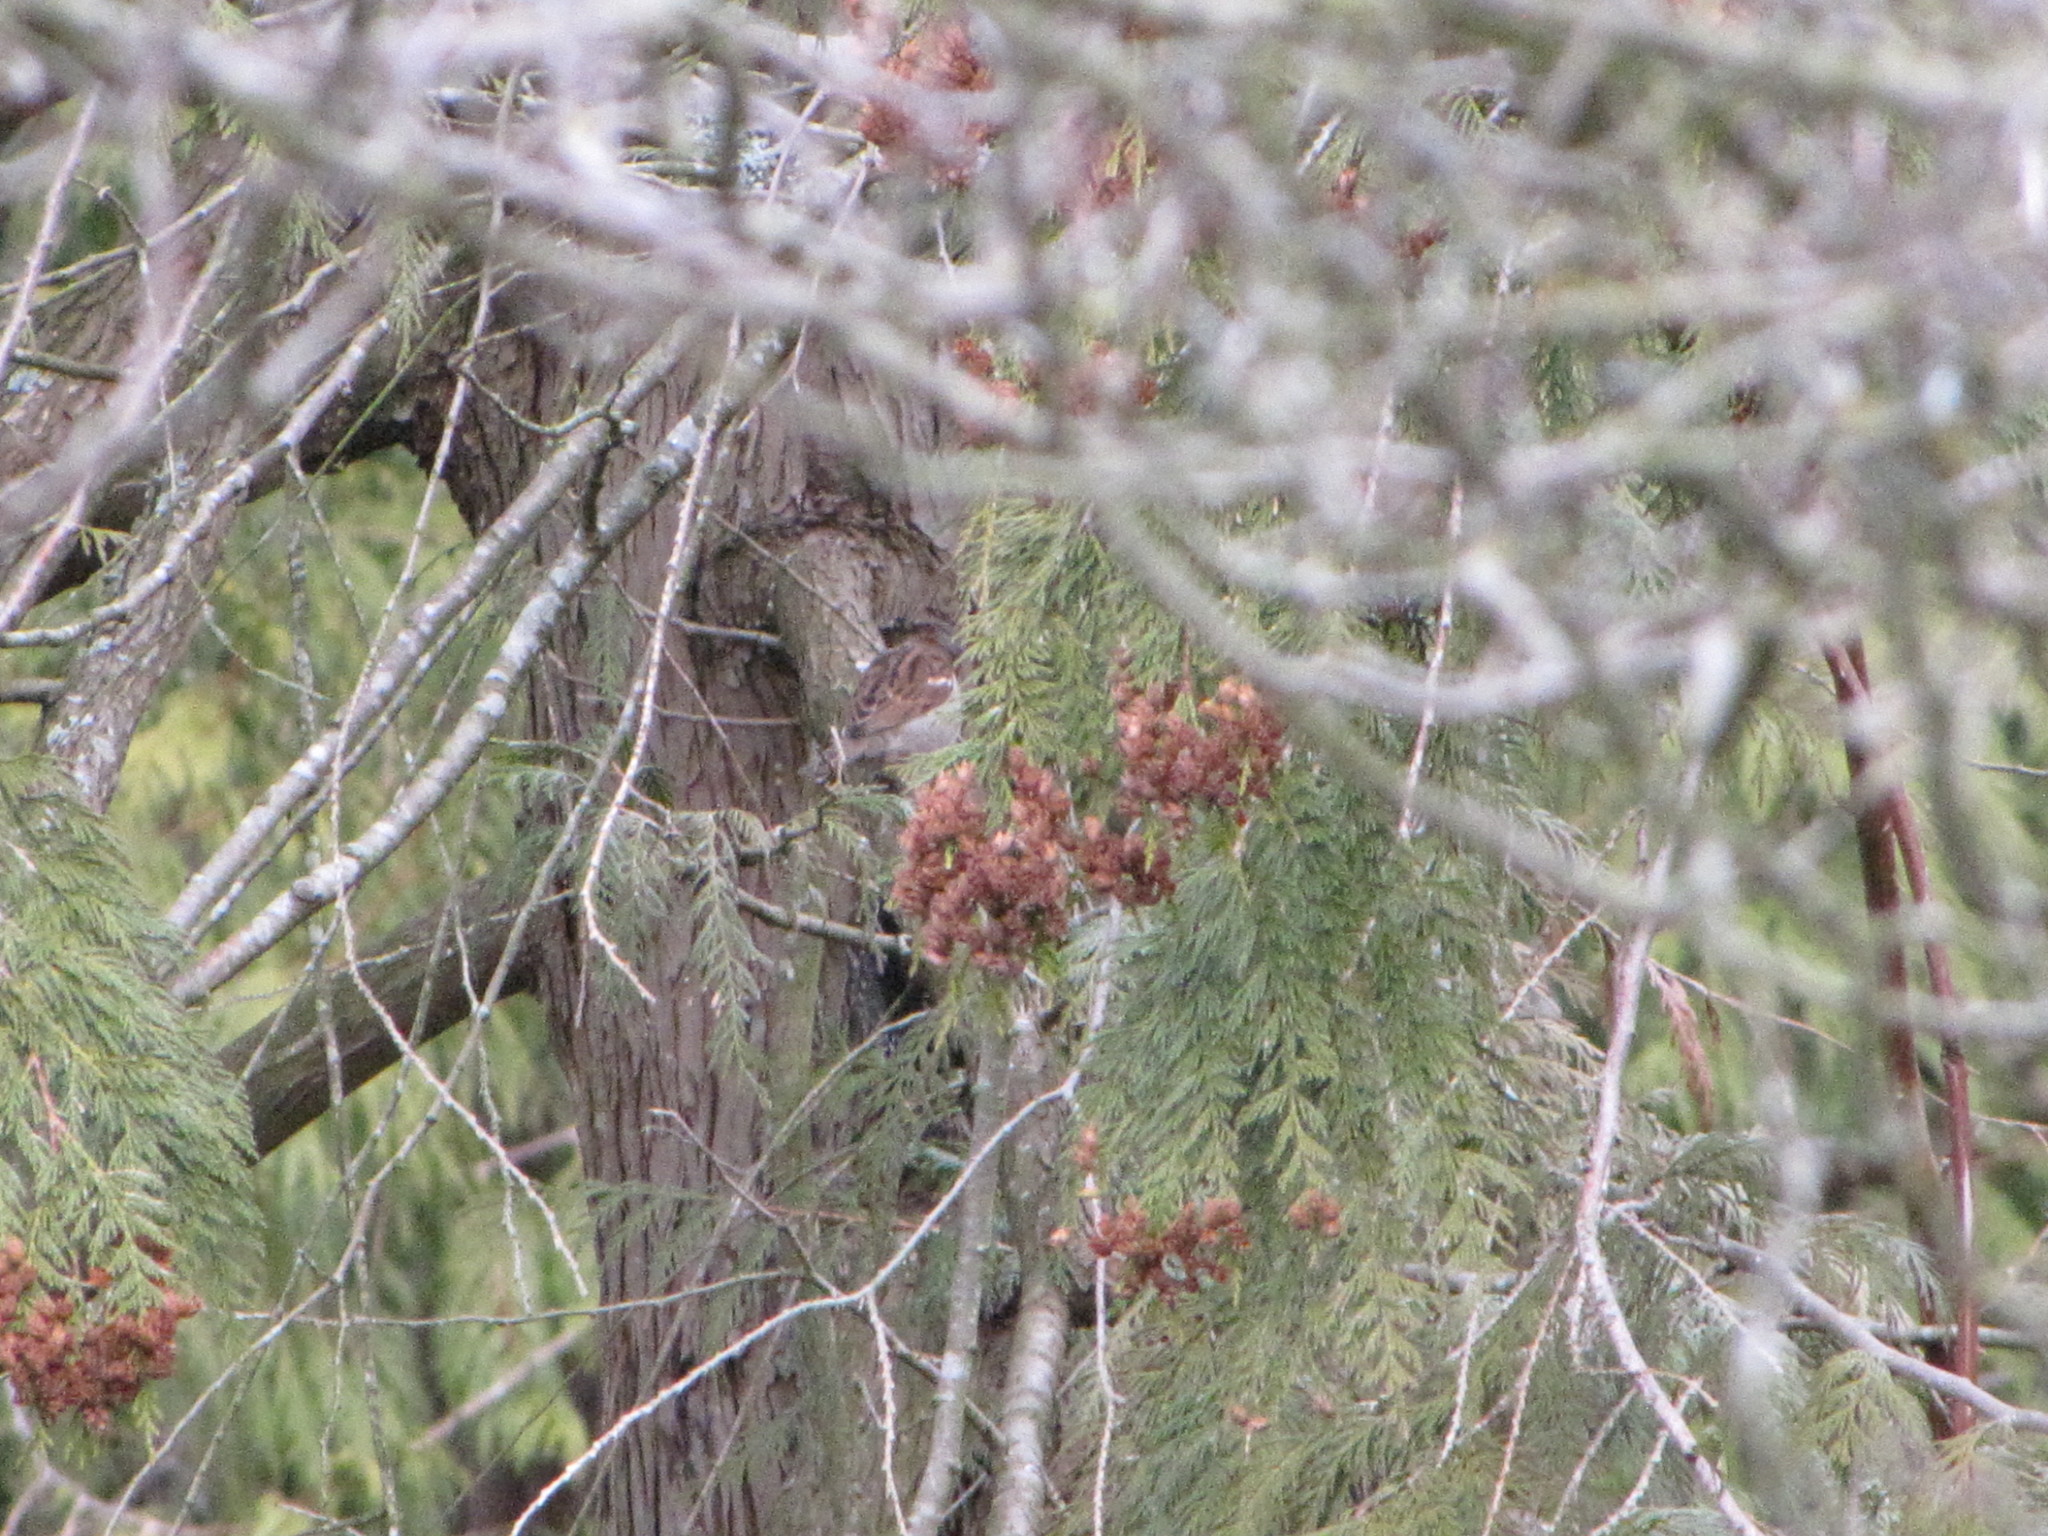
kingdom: Animalia
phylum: Chordata
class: Aves
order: Passeriformes
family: Passeridae
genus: Passer
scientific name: Passer domesticus
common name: House sparrow
